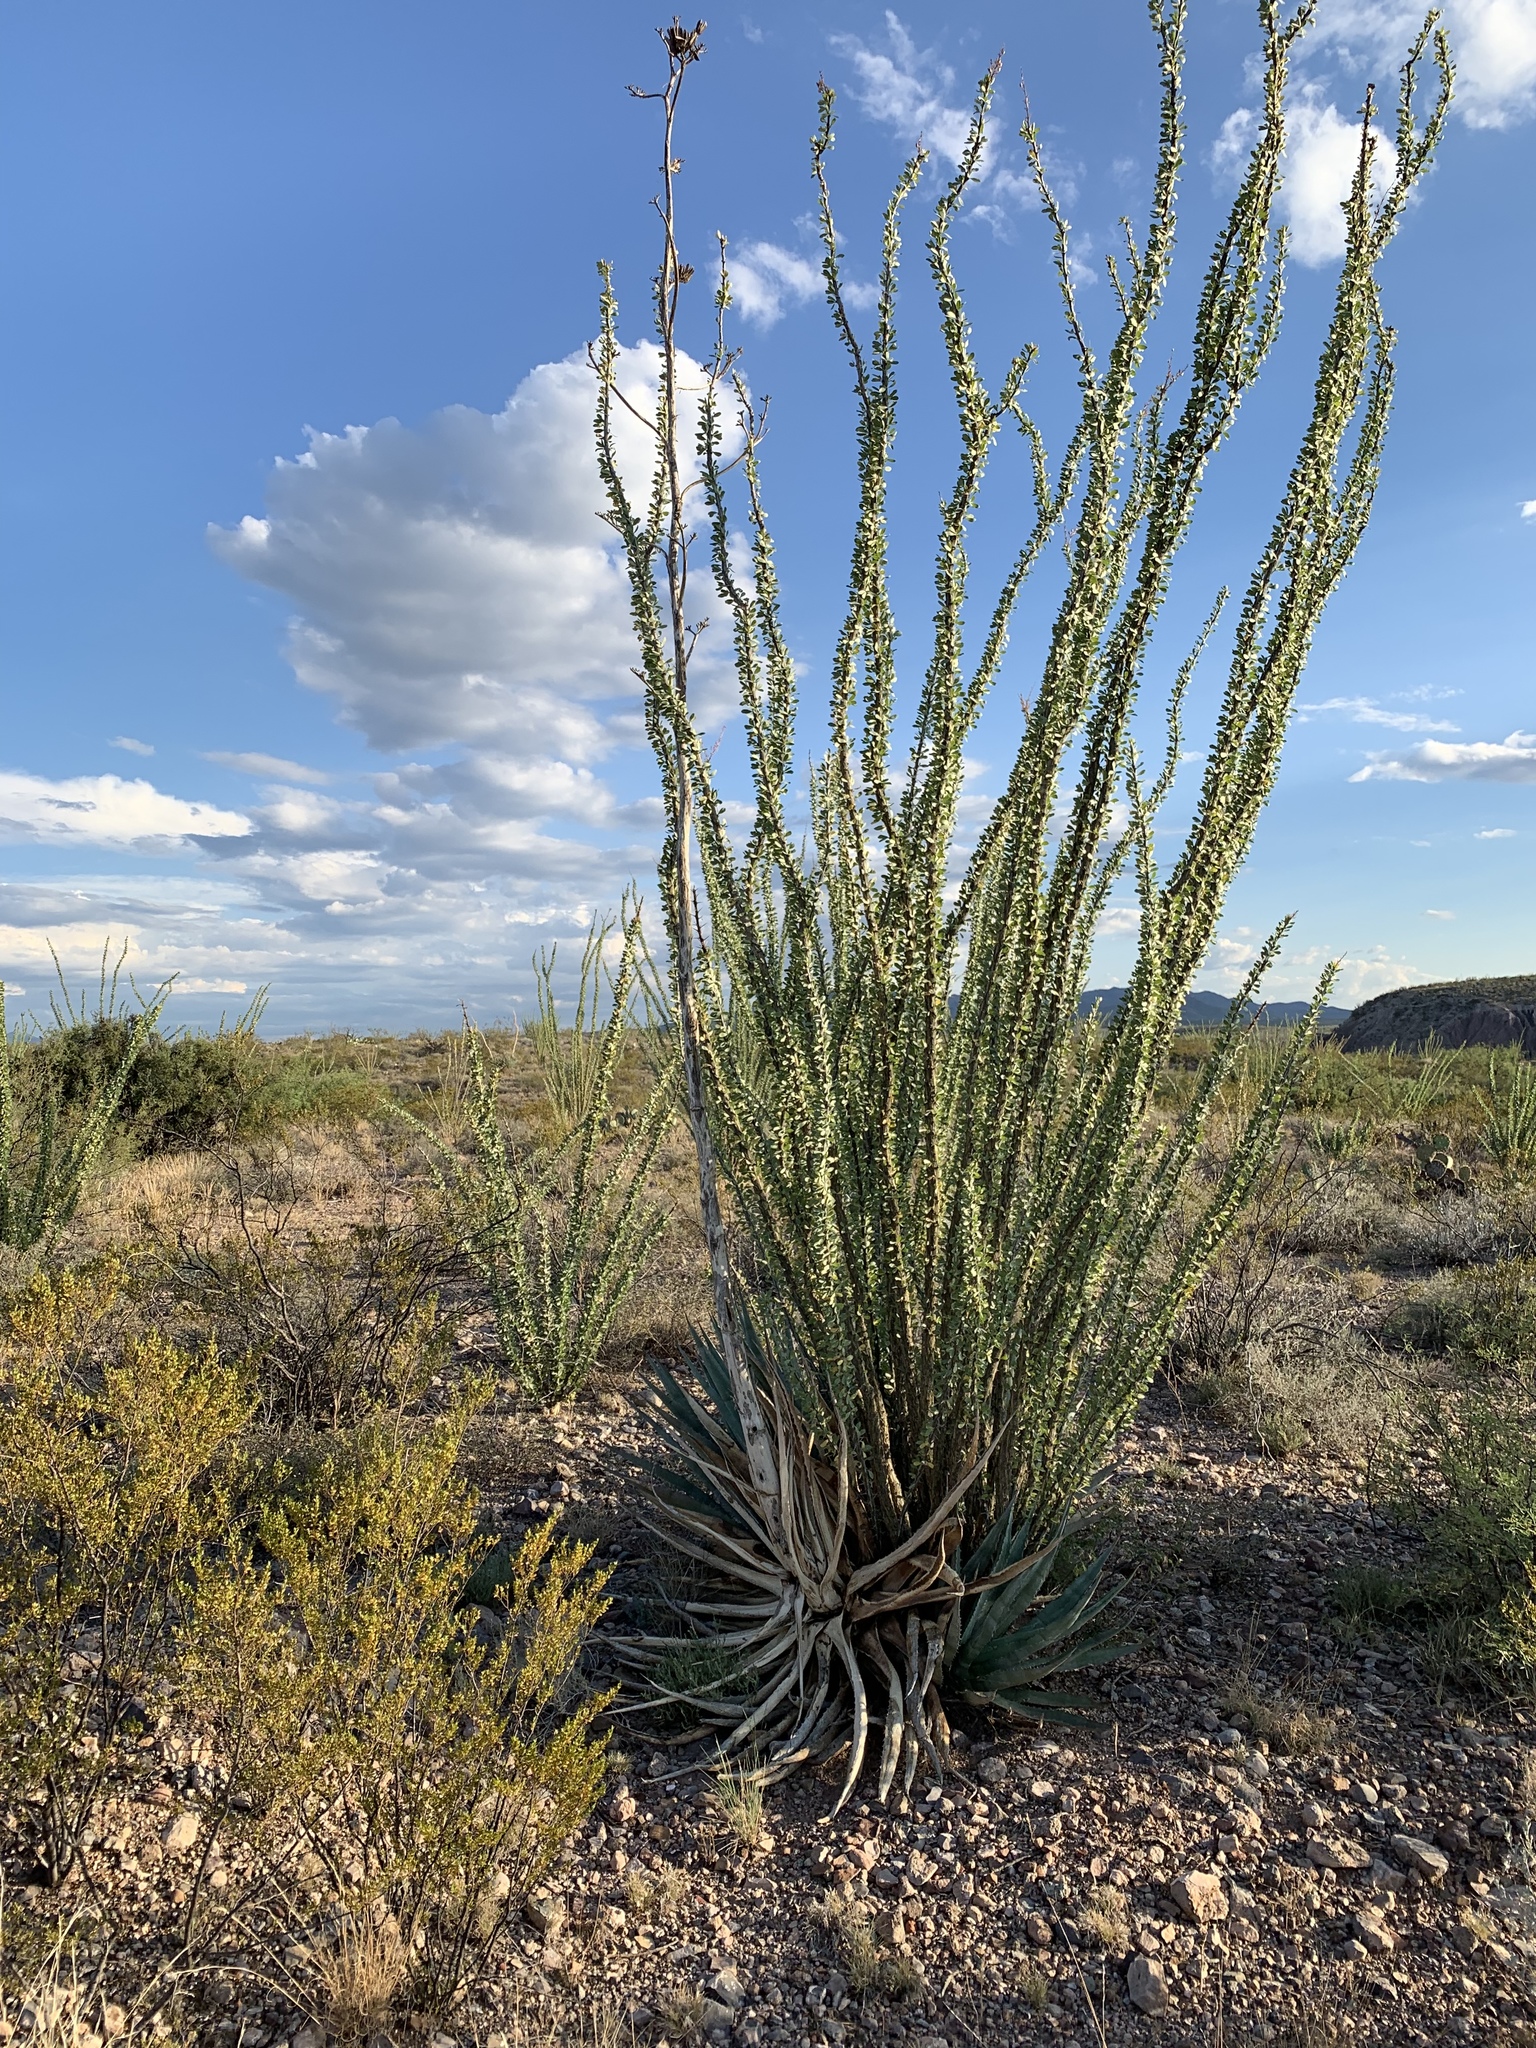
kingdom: Plantae
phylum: Tracheophyta
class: Magnoliopsida
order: Ericales
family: Fouquieriaceae
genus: Fouquieria
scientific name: Fouquieria splendens
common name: Vine-cactus
